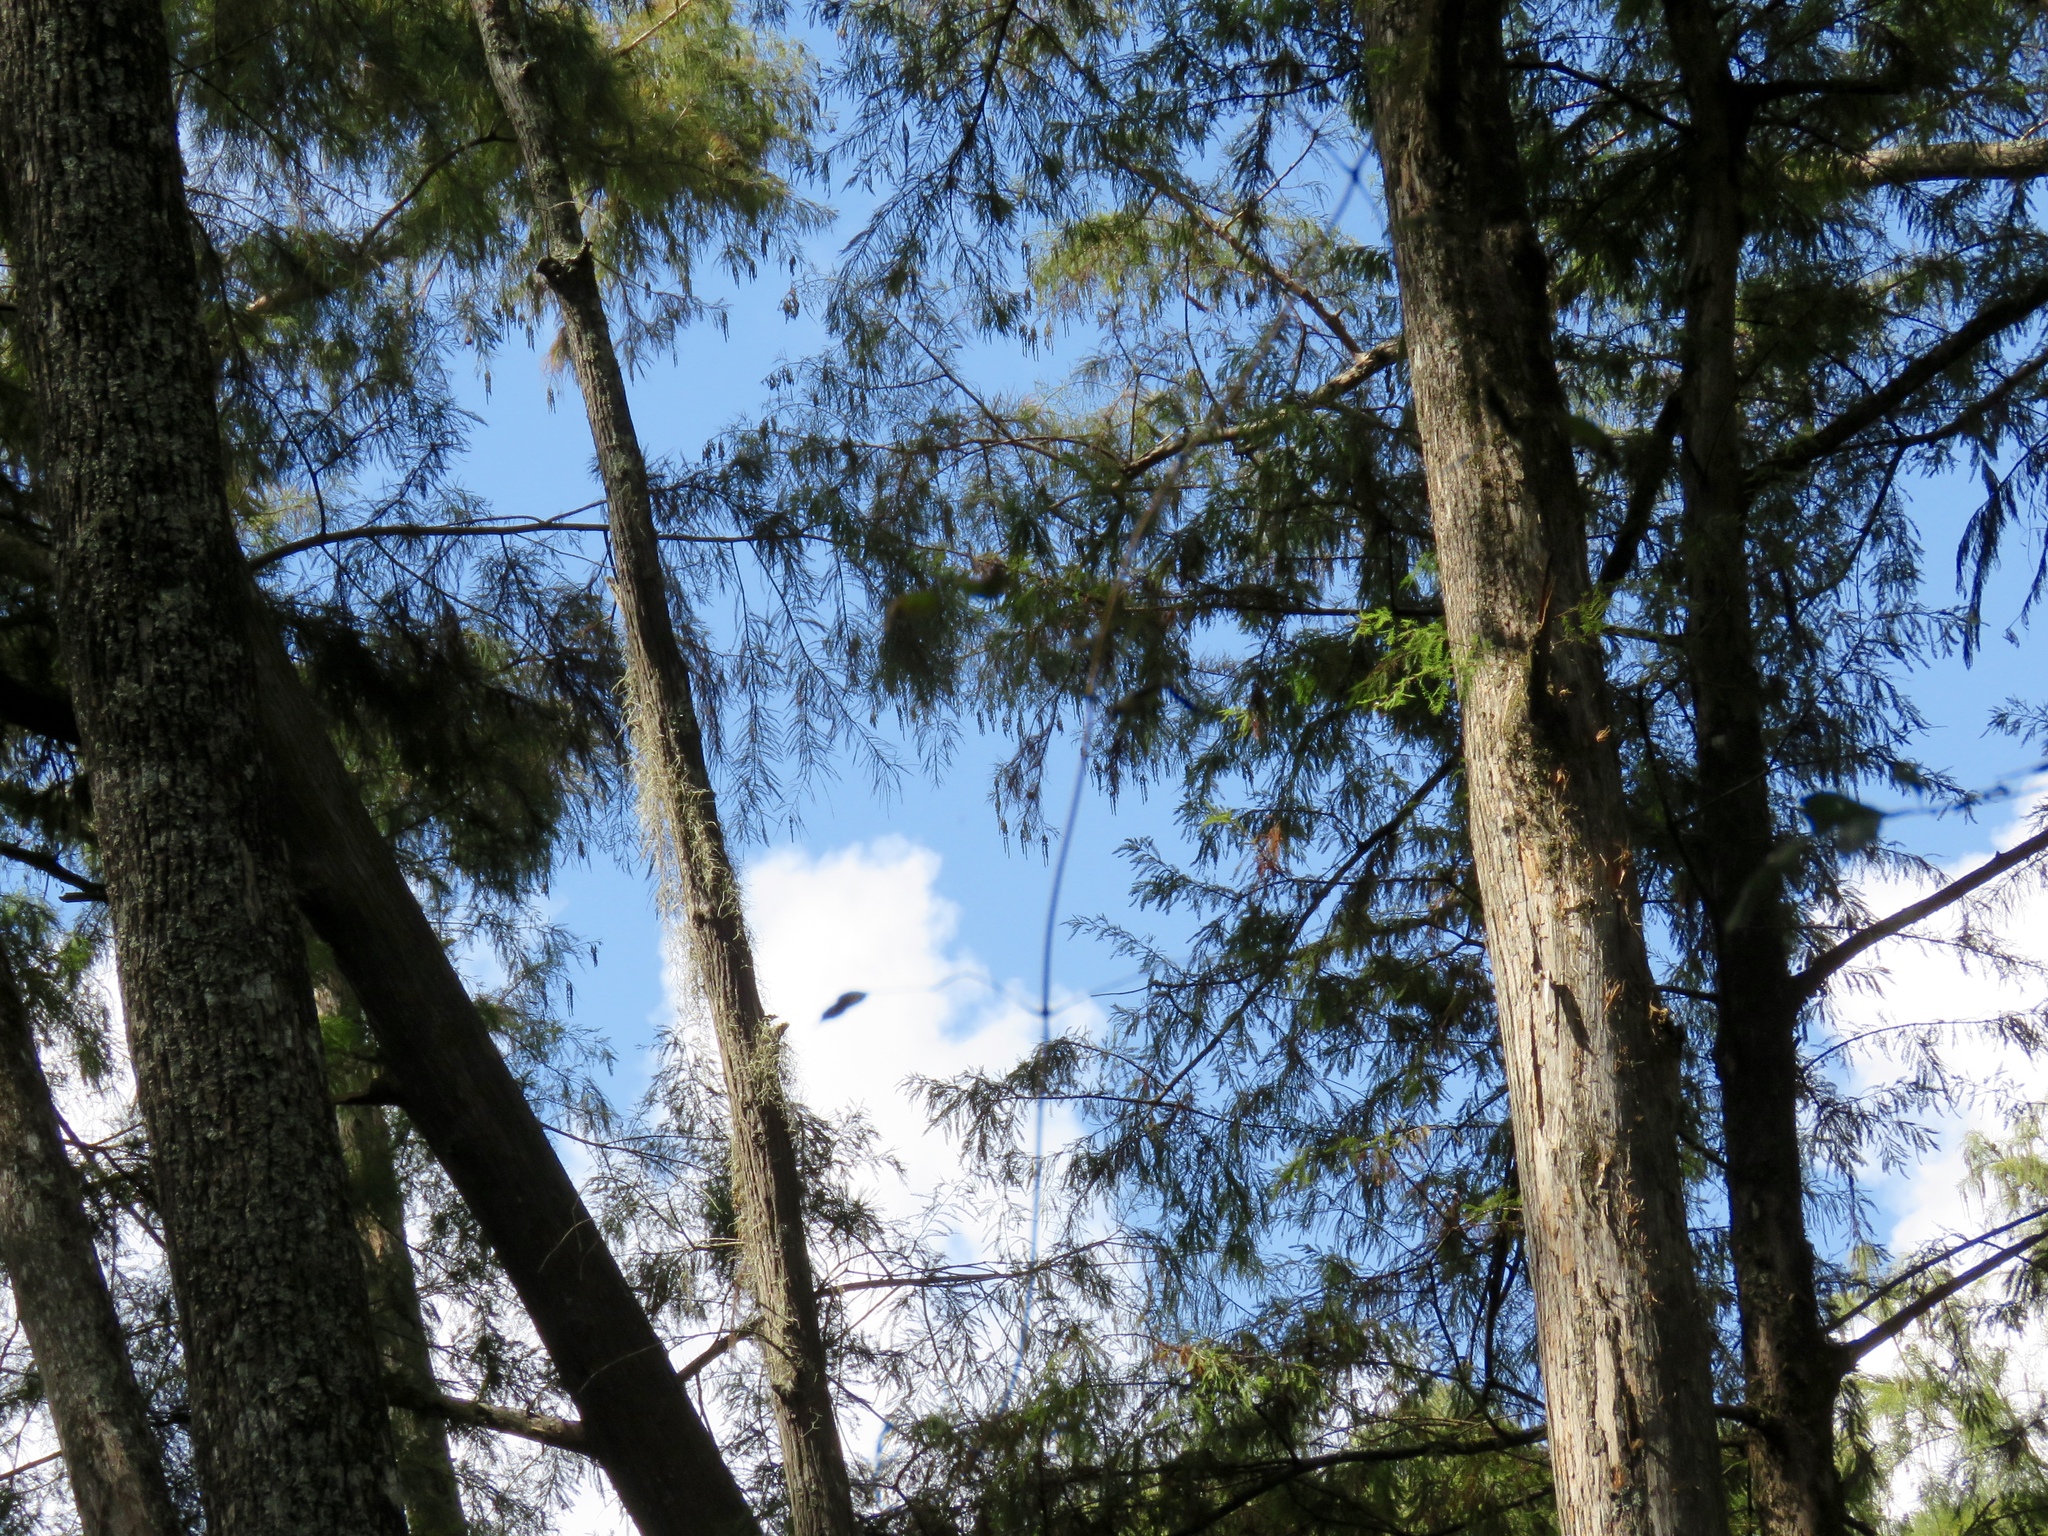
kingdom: Plantae
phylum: Tracheophyta
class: Pinopsida
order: Pinales
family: Cupressaceae
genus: Taxodium
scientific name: Taxodium distichum
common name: Bald cypress
